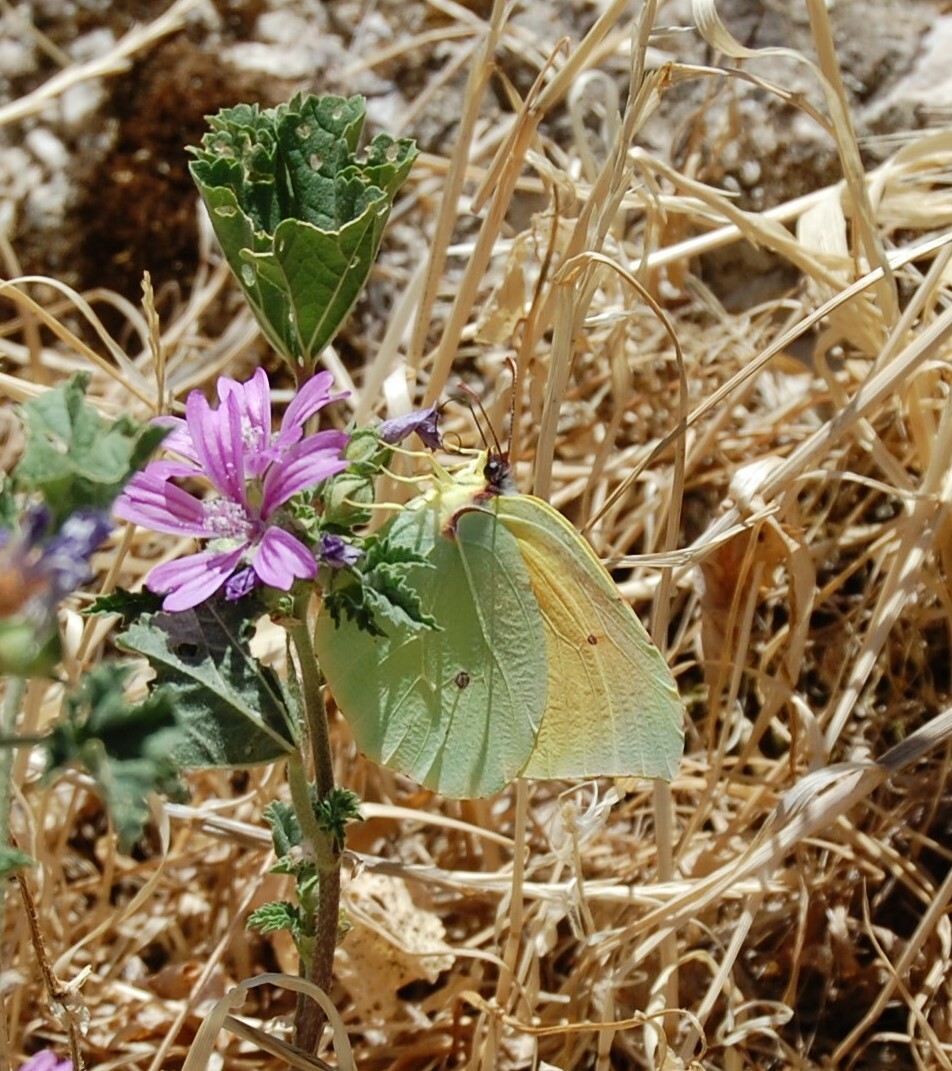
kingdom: Animalia
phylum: Arthropoda
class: Insecta
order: Lepidoptera
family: Pieridae
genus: Gonepteryx
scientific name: Gonepteryx cleopatra
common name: Cleopatra
